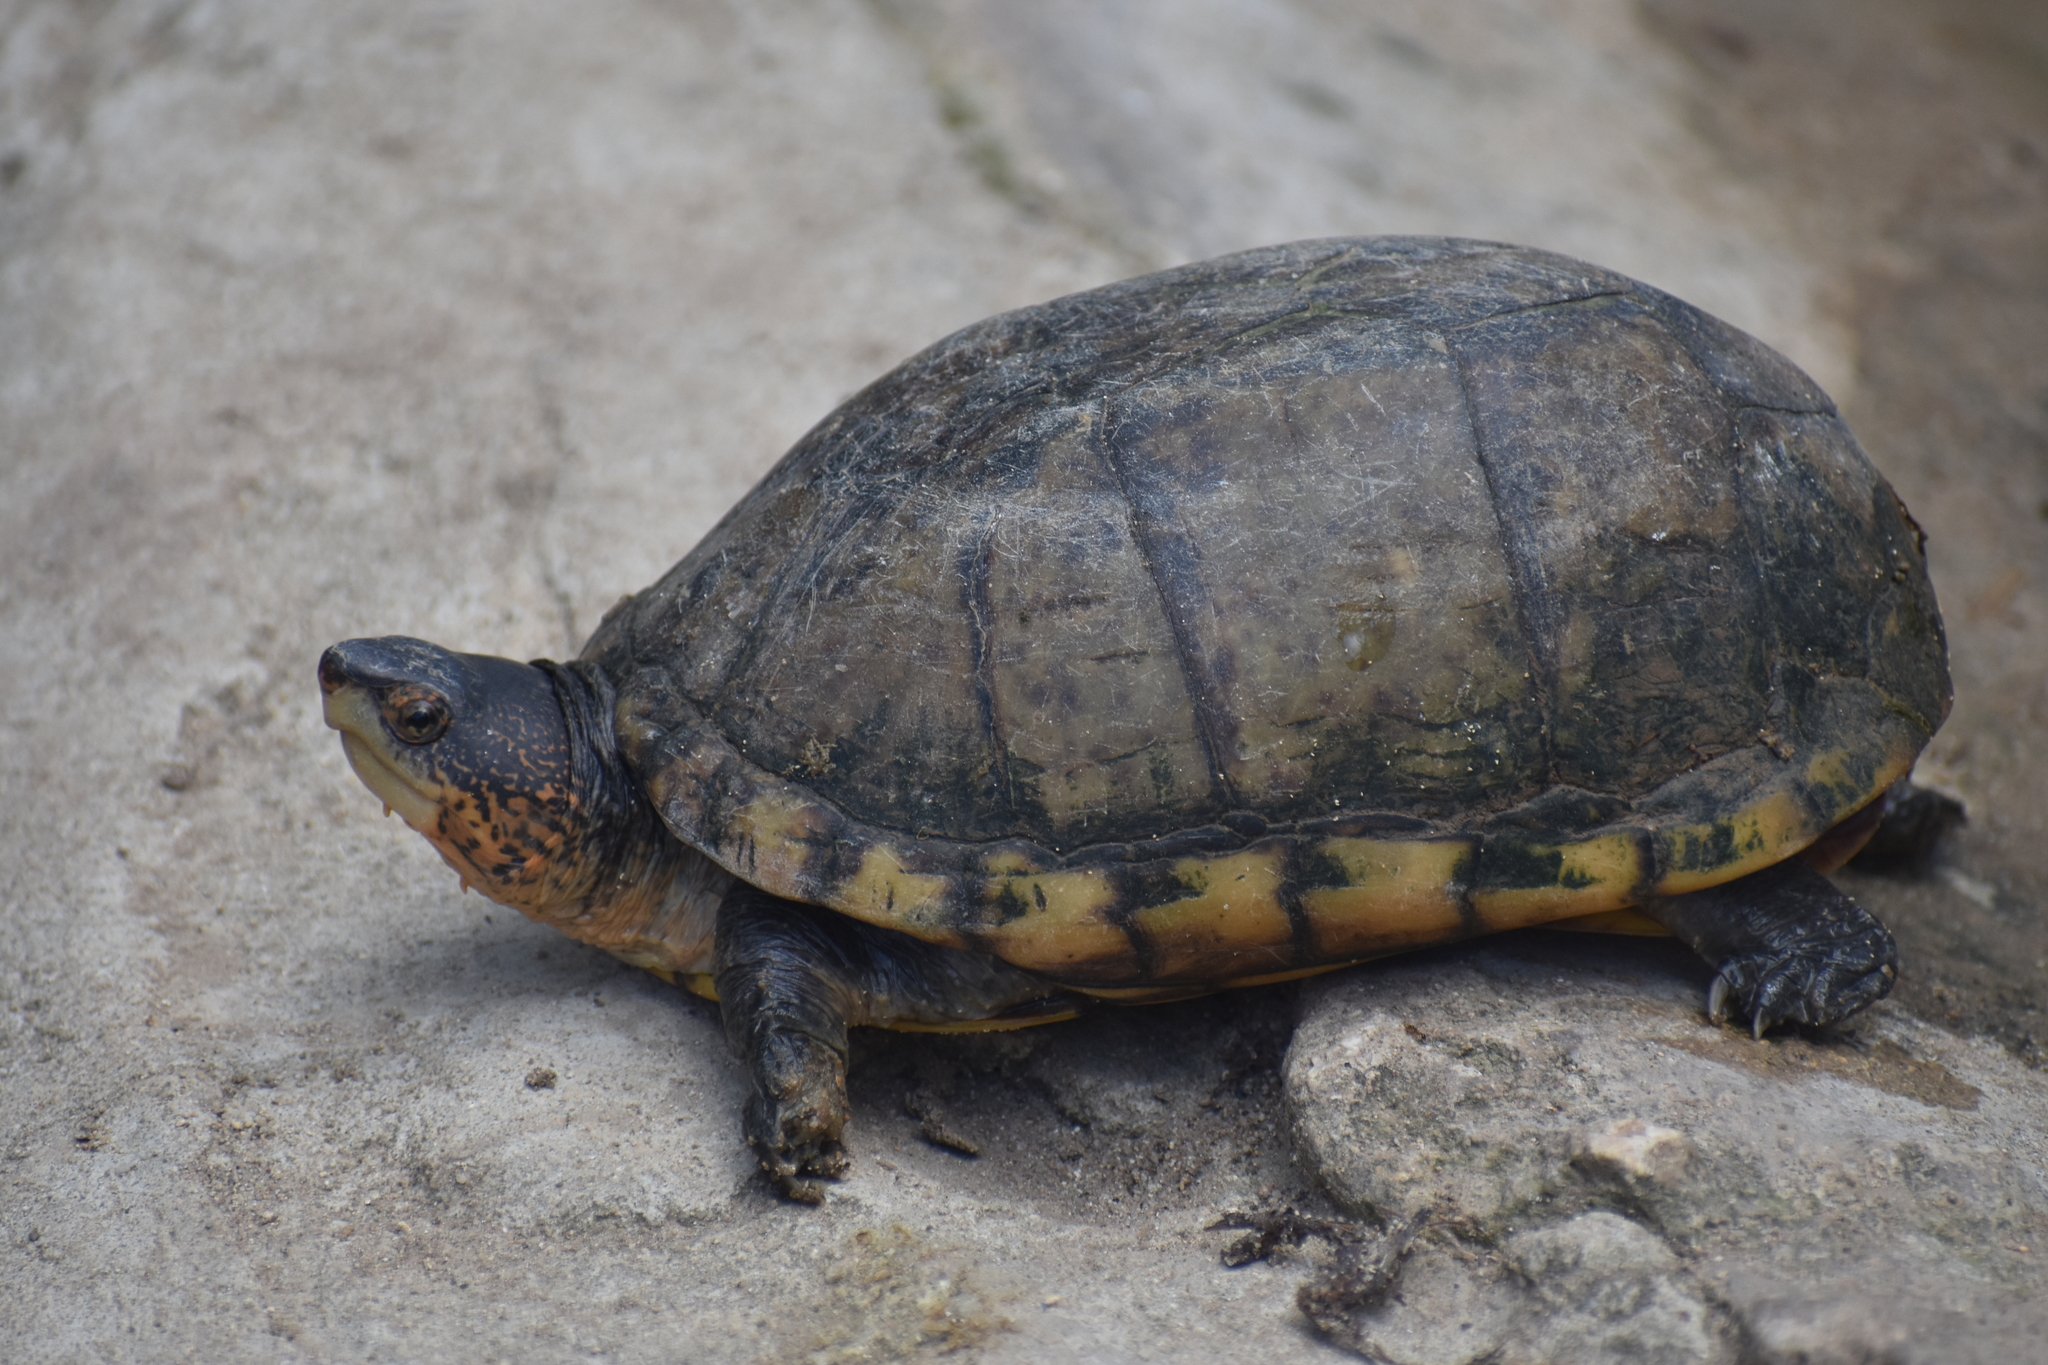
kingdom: Animalia
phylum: Chordata
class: Testudines
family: Kinosternidae
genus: Kinosternon
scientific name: Kinosternon scorpioides
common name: Scorpion mud turtle
